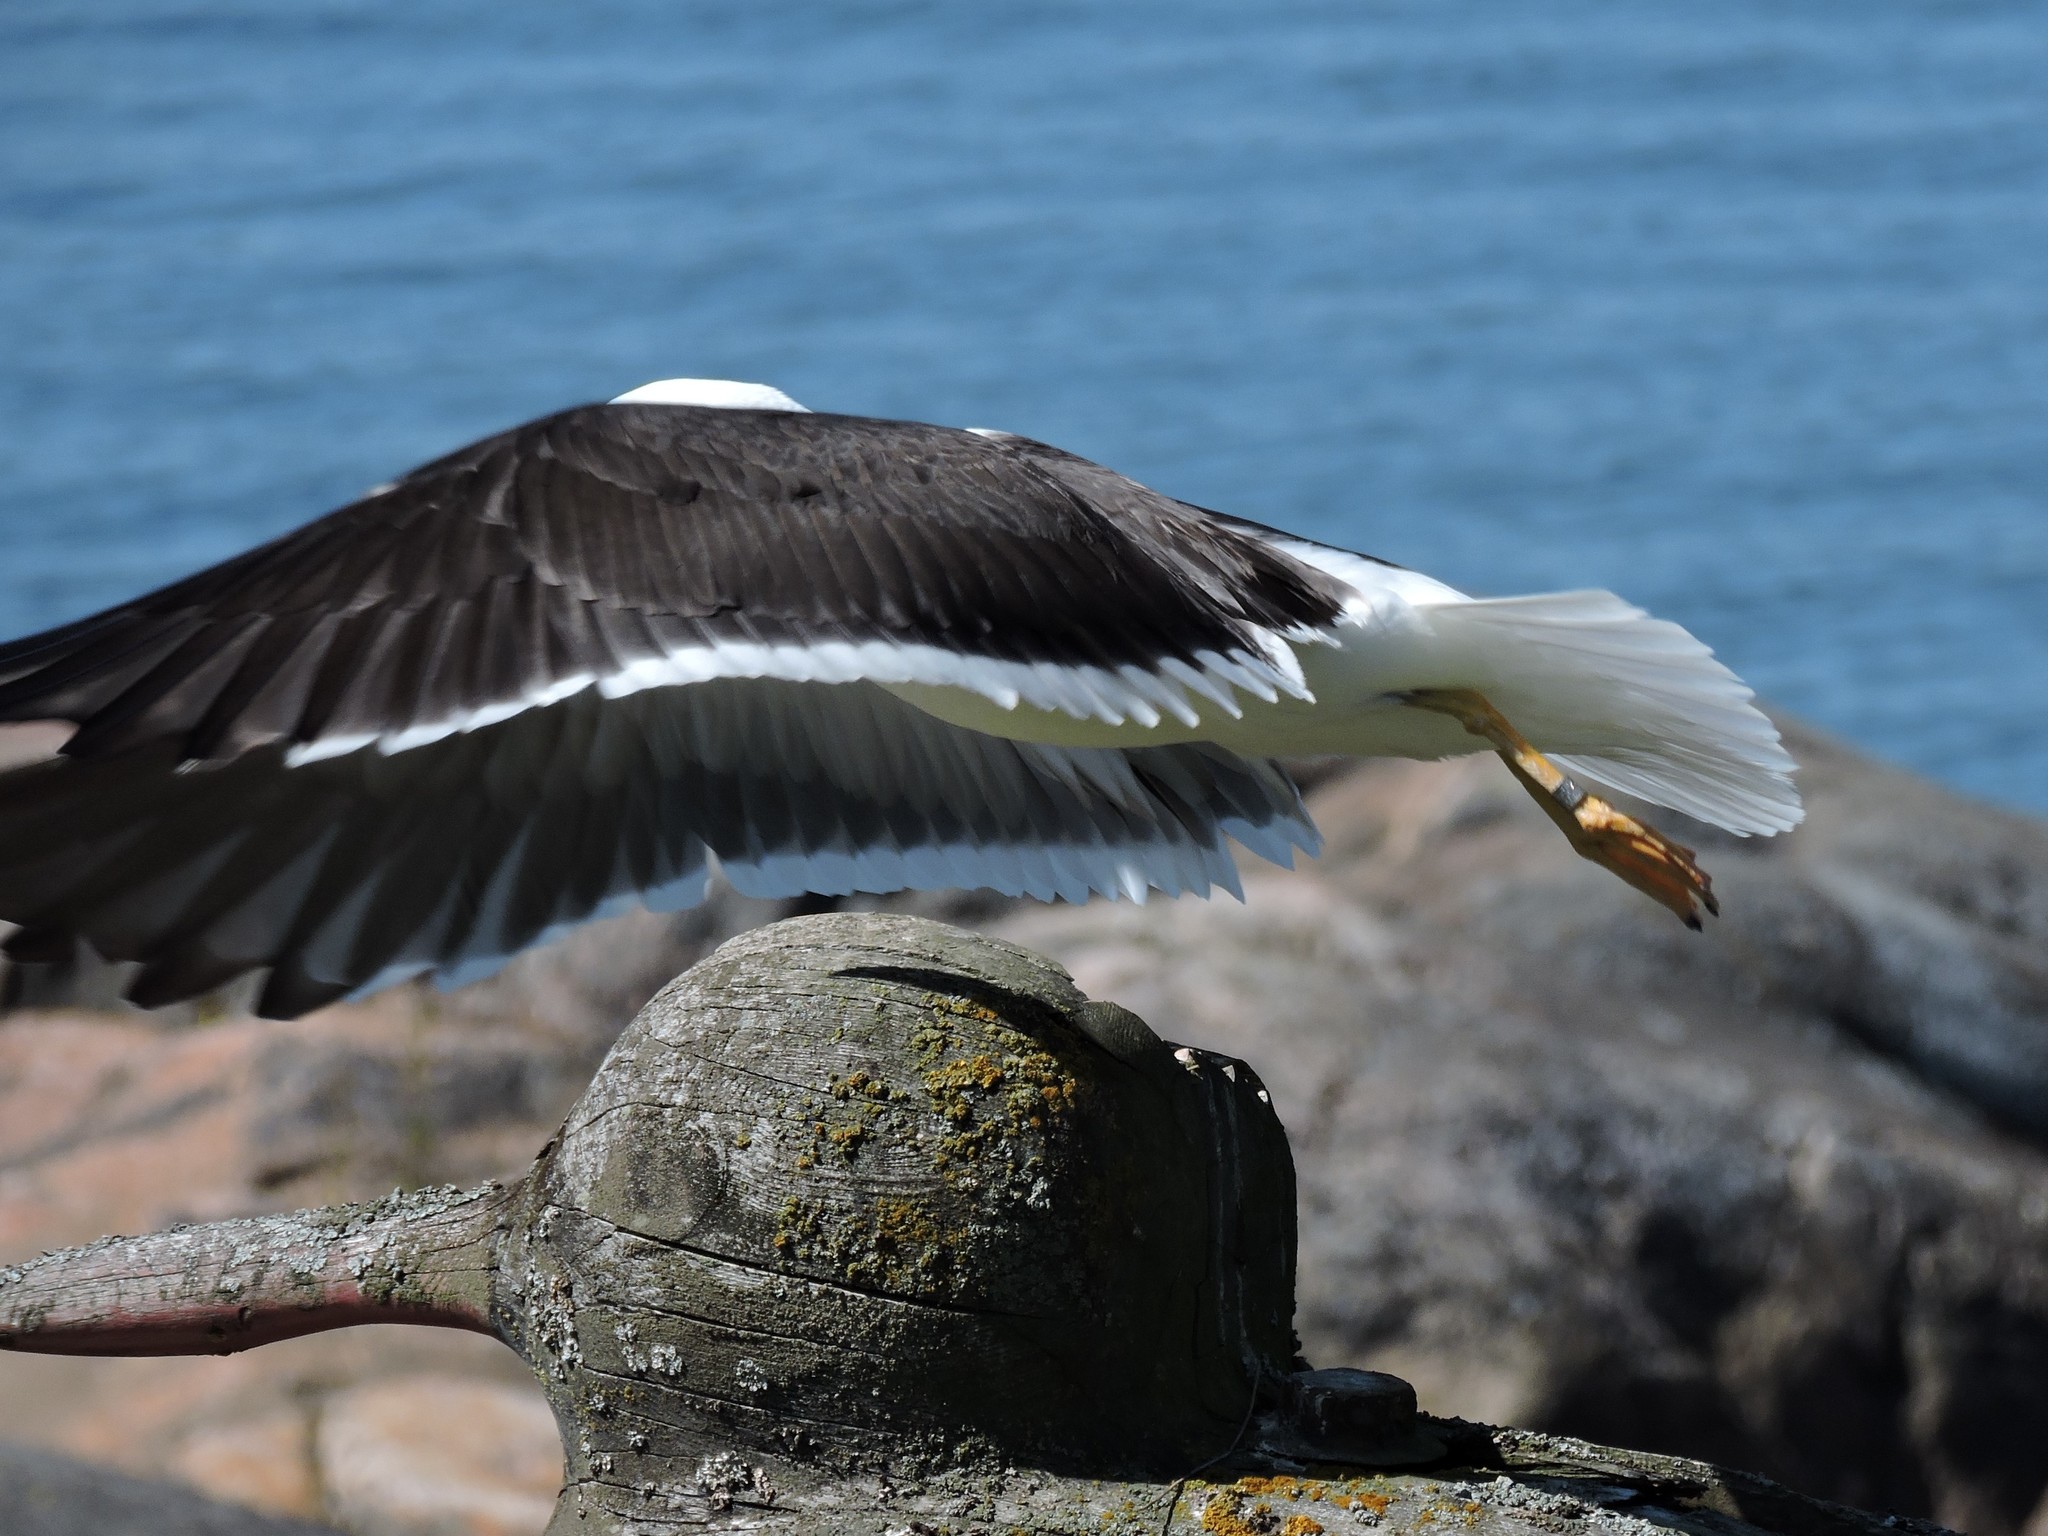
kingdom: Animalia
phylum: Chordata
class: Aves
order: Charadriiformes
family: Laridae
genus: Larus
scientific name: Larus fuscus
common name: Lesser black-backed gull
